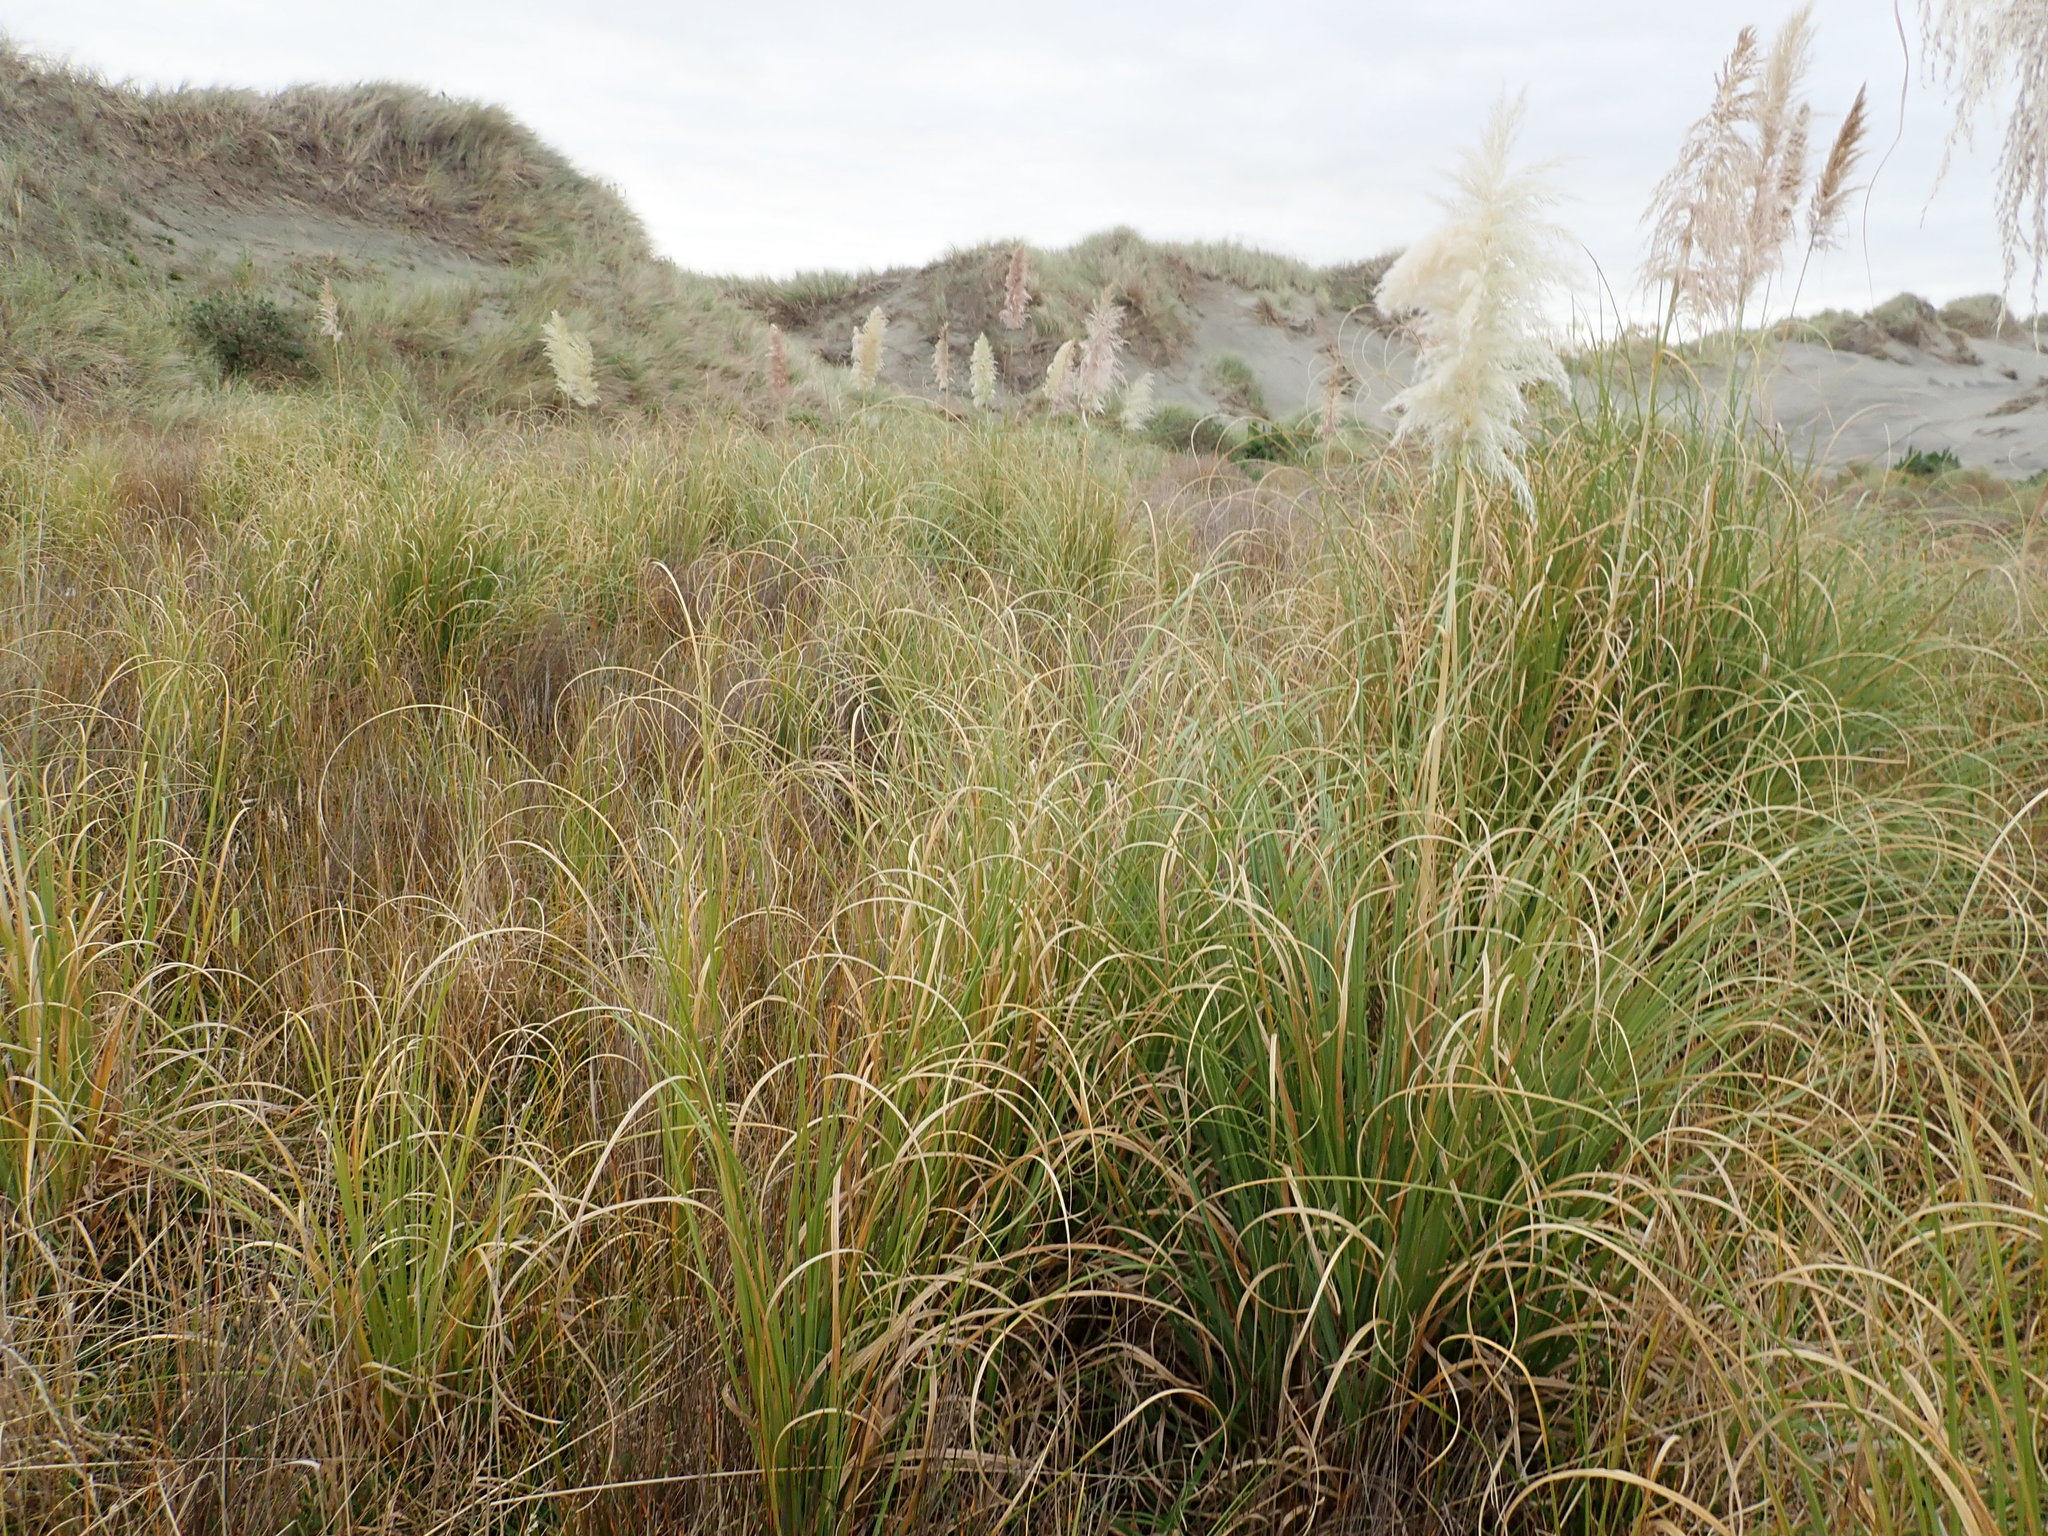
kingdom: Plantae
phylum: Tracheophyta
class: Liliopsida
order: Poales
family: Poaceae
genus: Cortaderia
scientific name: Cortaderia selloana
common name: Uruguayan pampas grass
